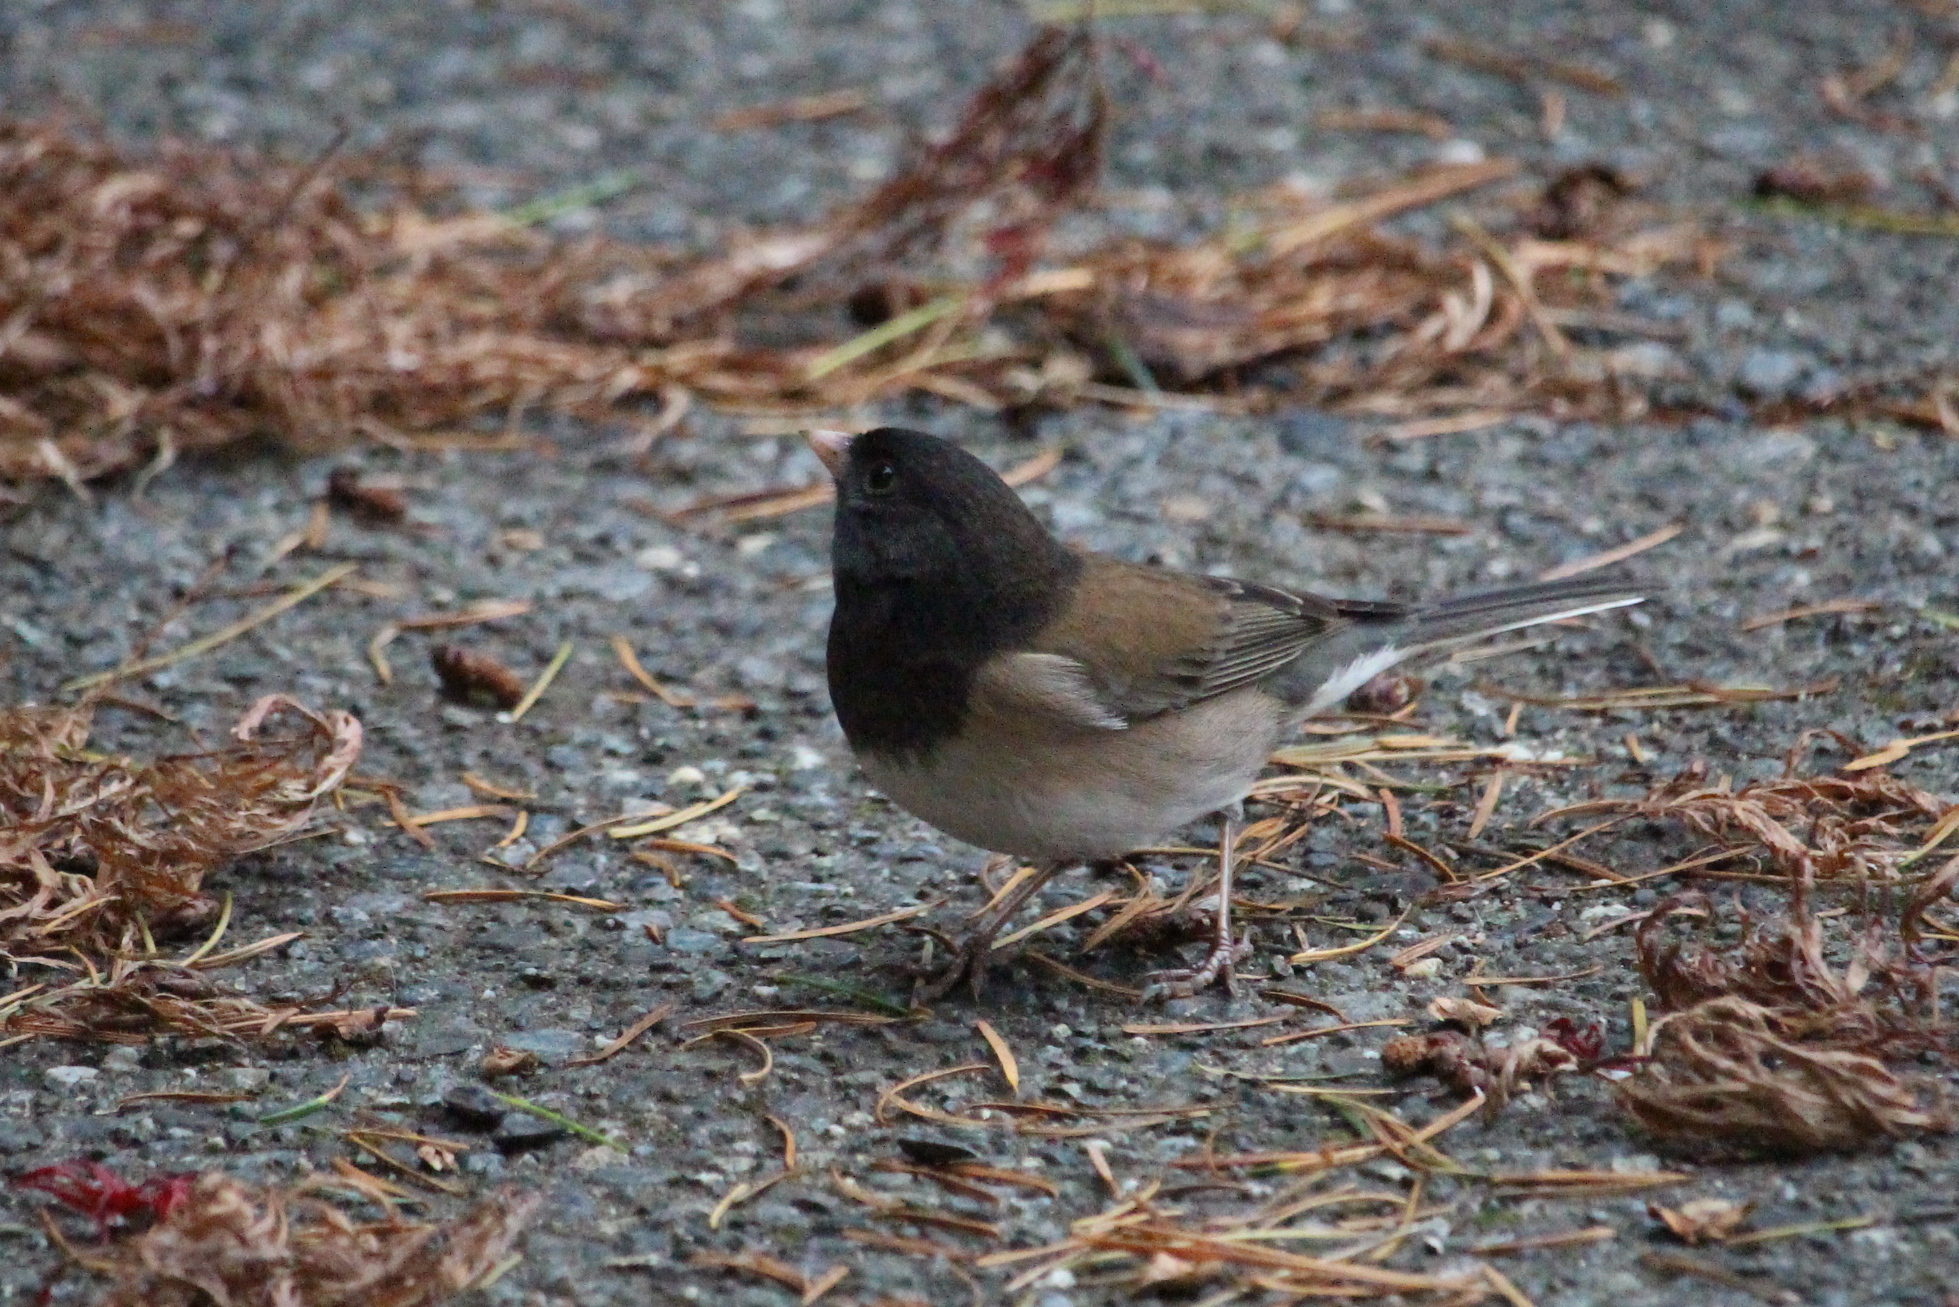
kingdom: Animalia
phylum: Chordata
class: Aves
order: Passeriformes
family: Passerellidae
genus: Junco
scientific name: Junco hyemalis
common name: Dark-eyed junco
